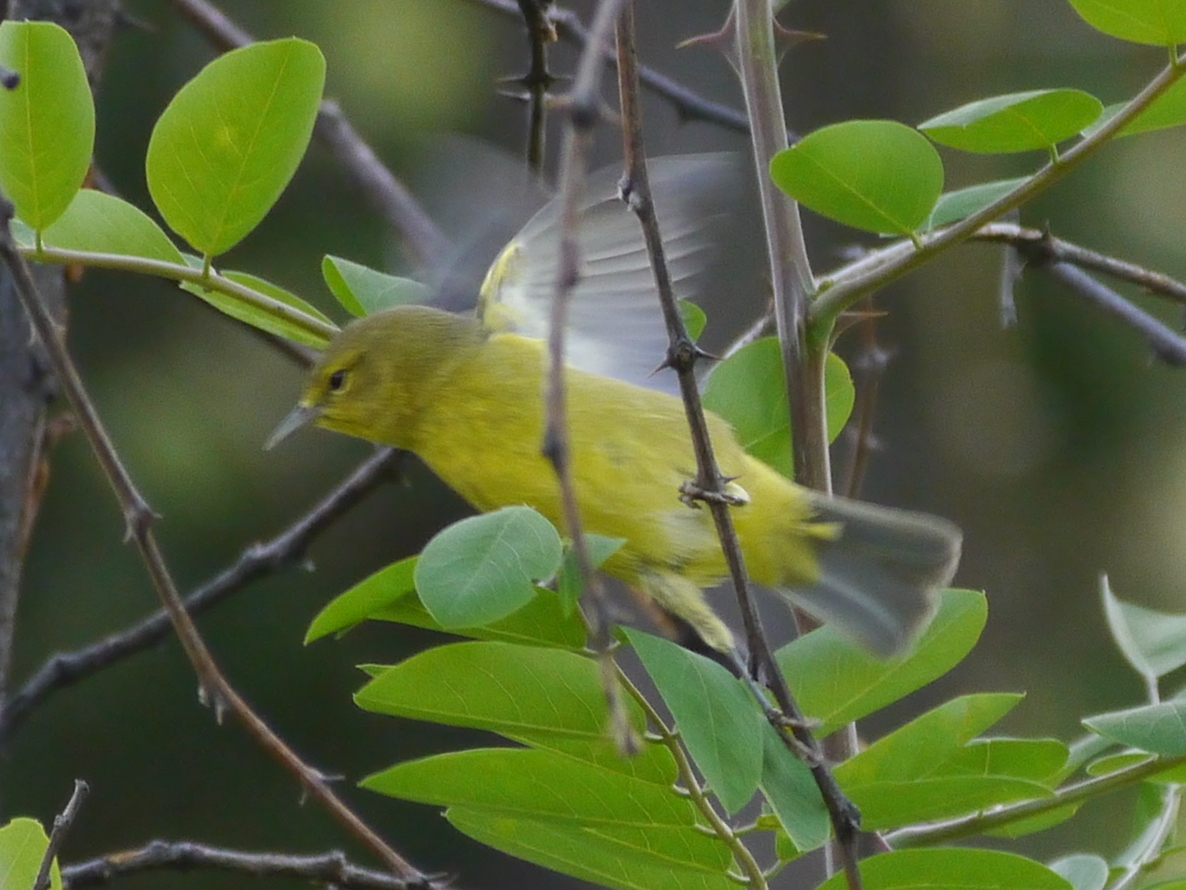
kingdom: Animalia
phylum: Chordata
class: Aves
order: Passeriformes
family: Parulidae
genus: Leiothlypis
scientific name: Leiothlypis celata
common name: Orange-crowned warbler
